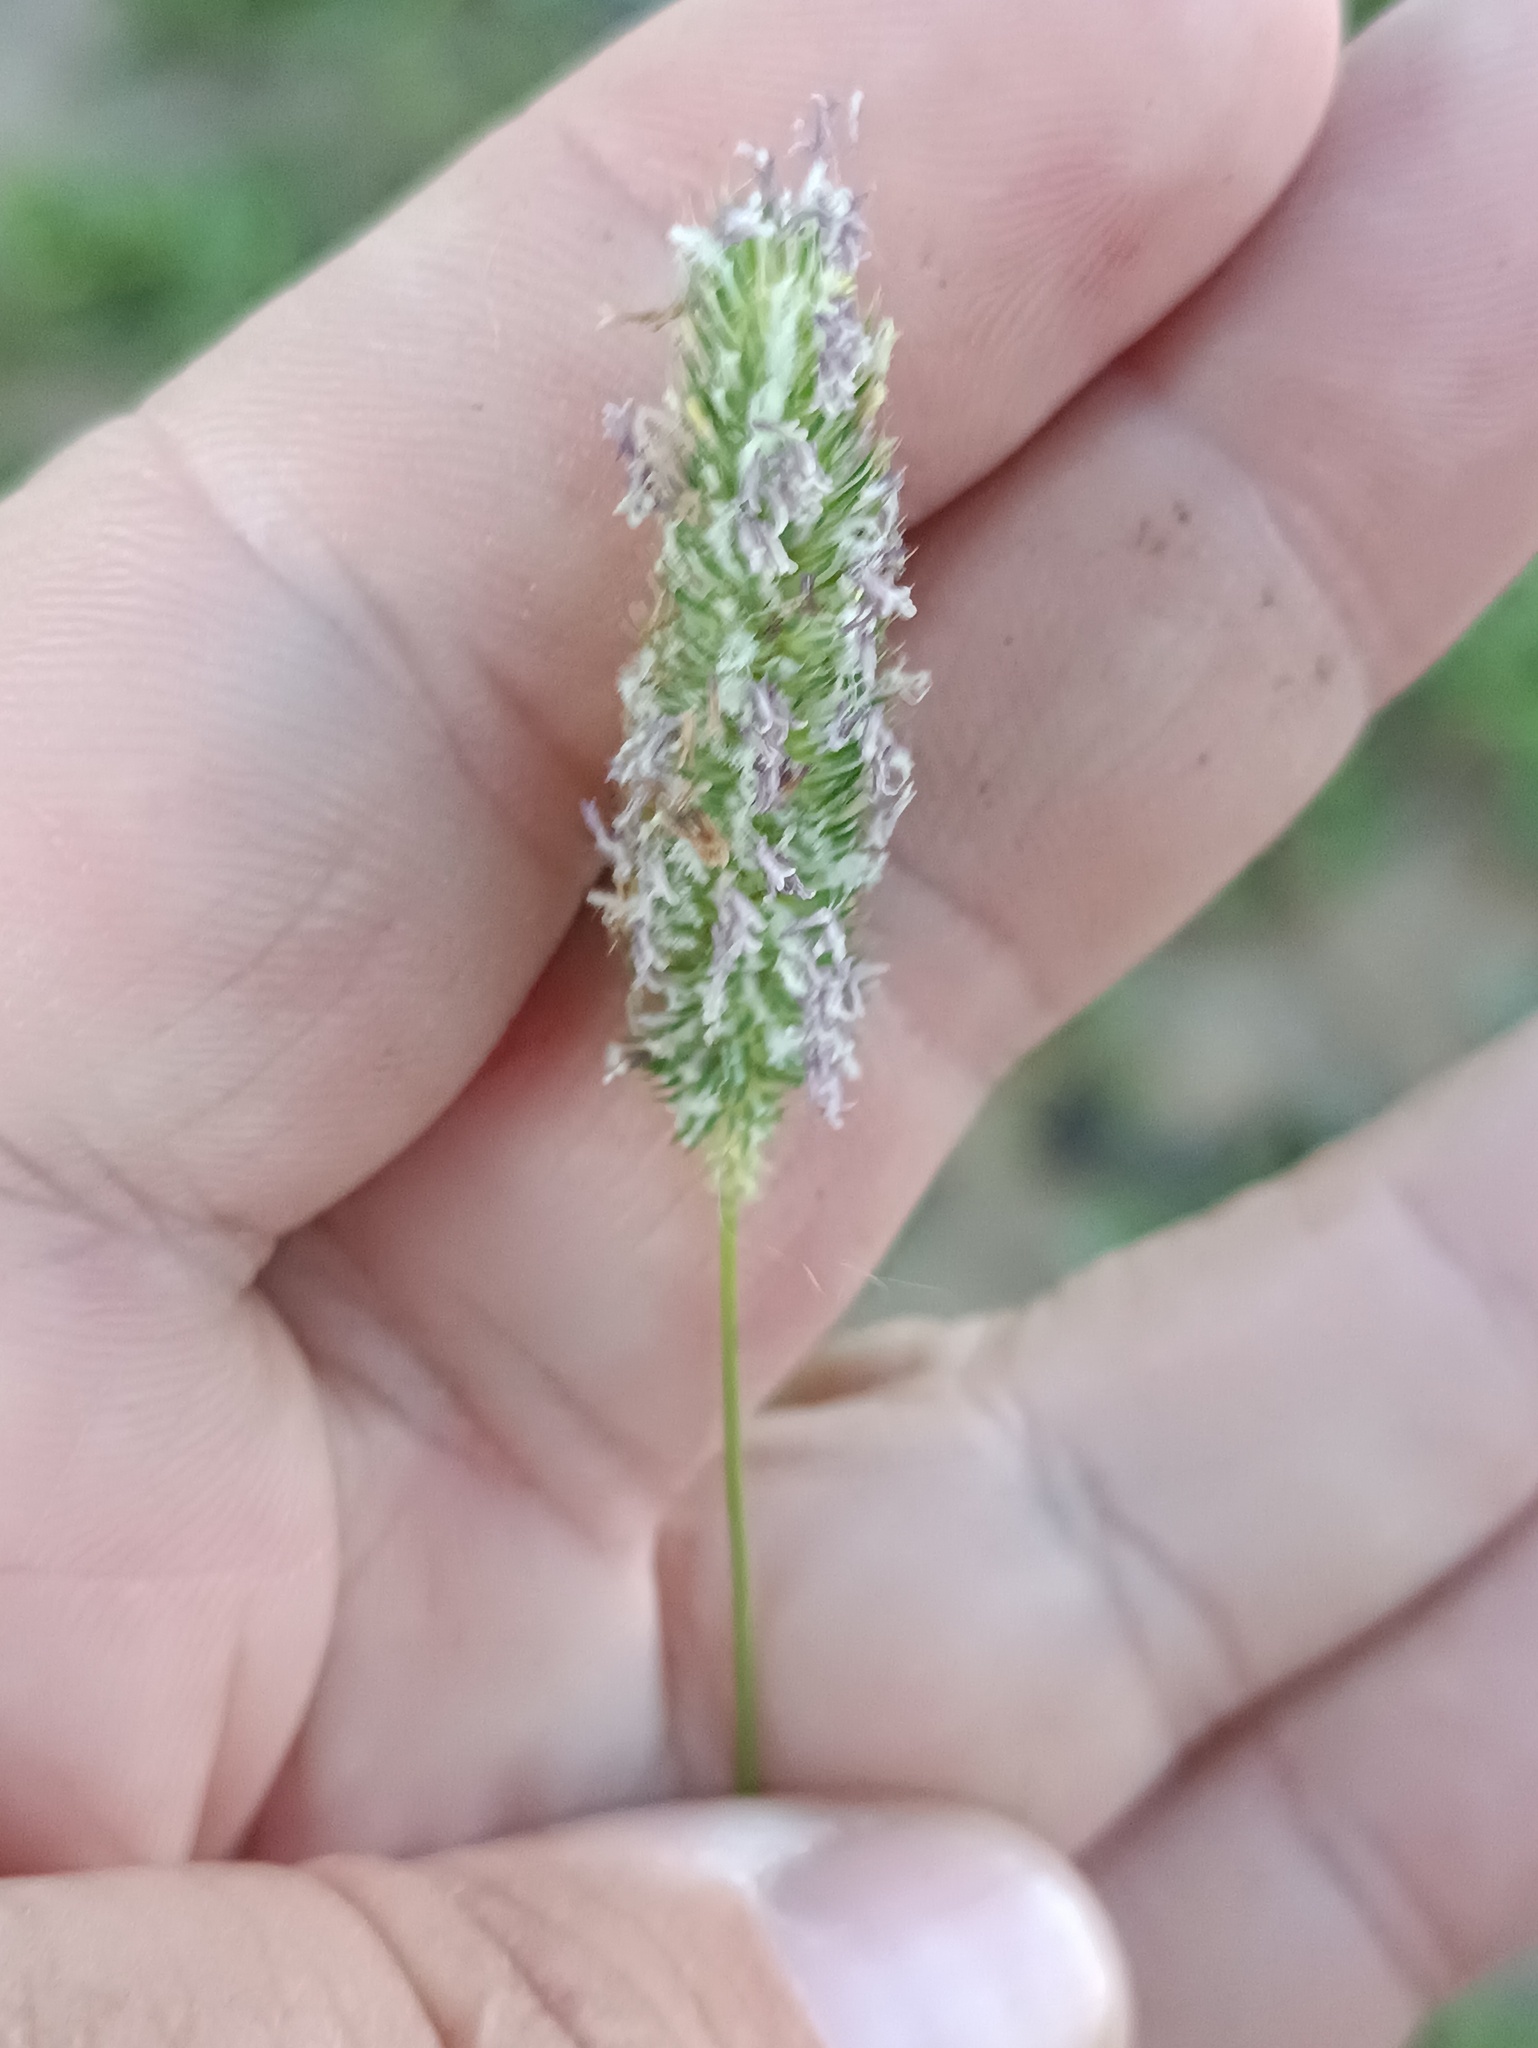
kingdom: Plantae
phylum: Tracheophyta
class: Liliopsida
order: Poales
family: Poaceae
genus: Phleum
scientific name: Phleum pratense
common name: Timothy grass
